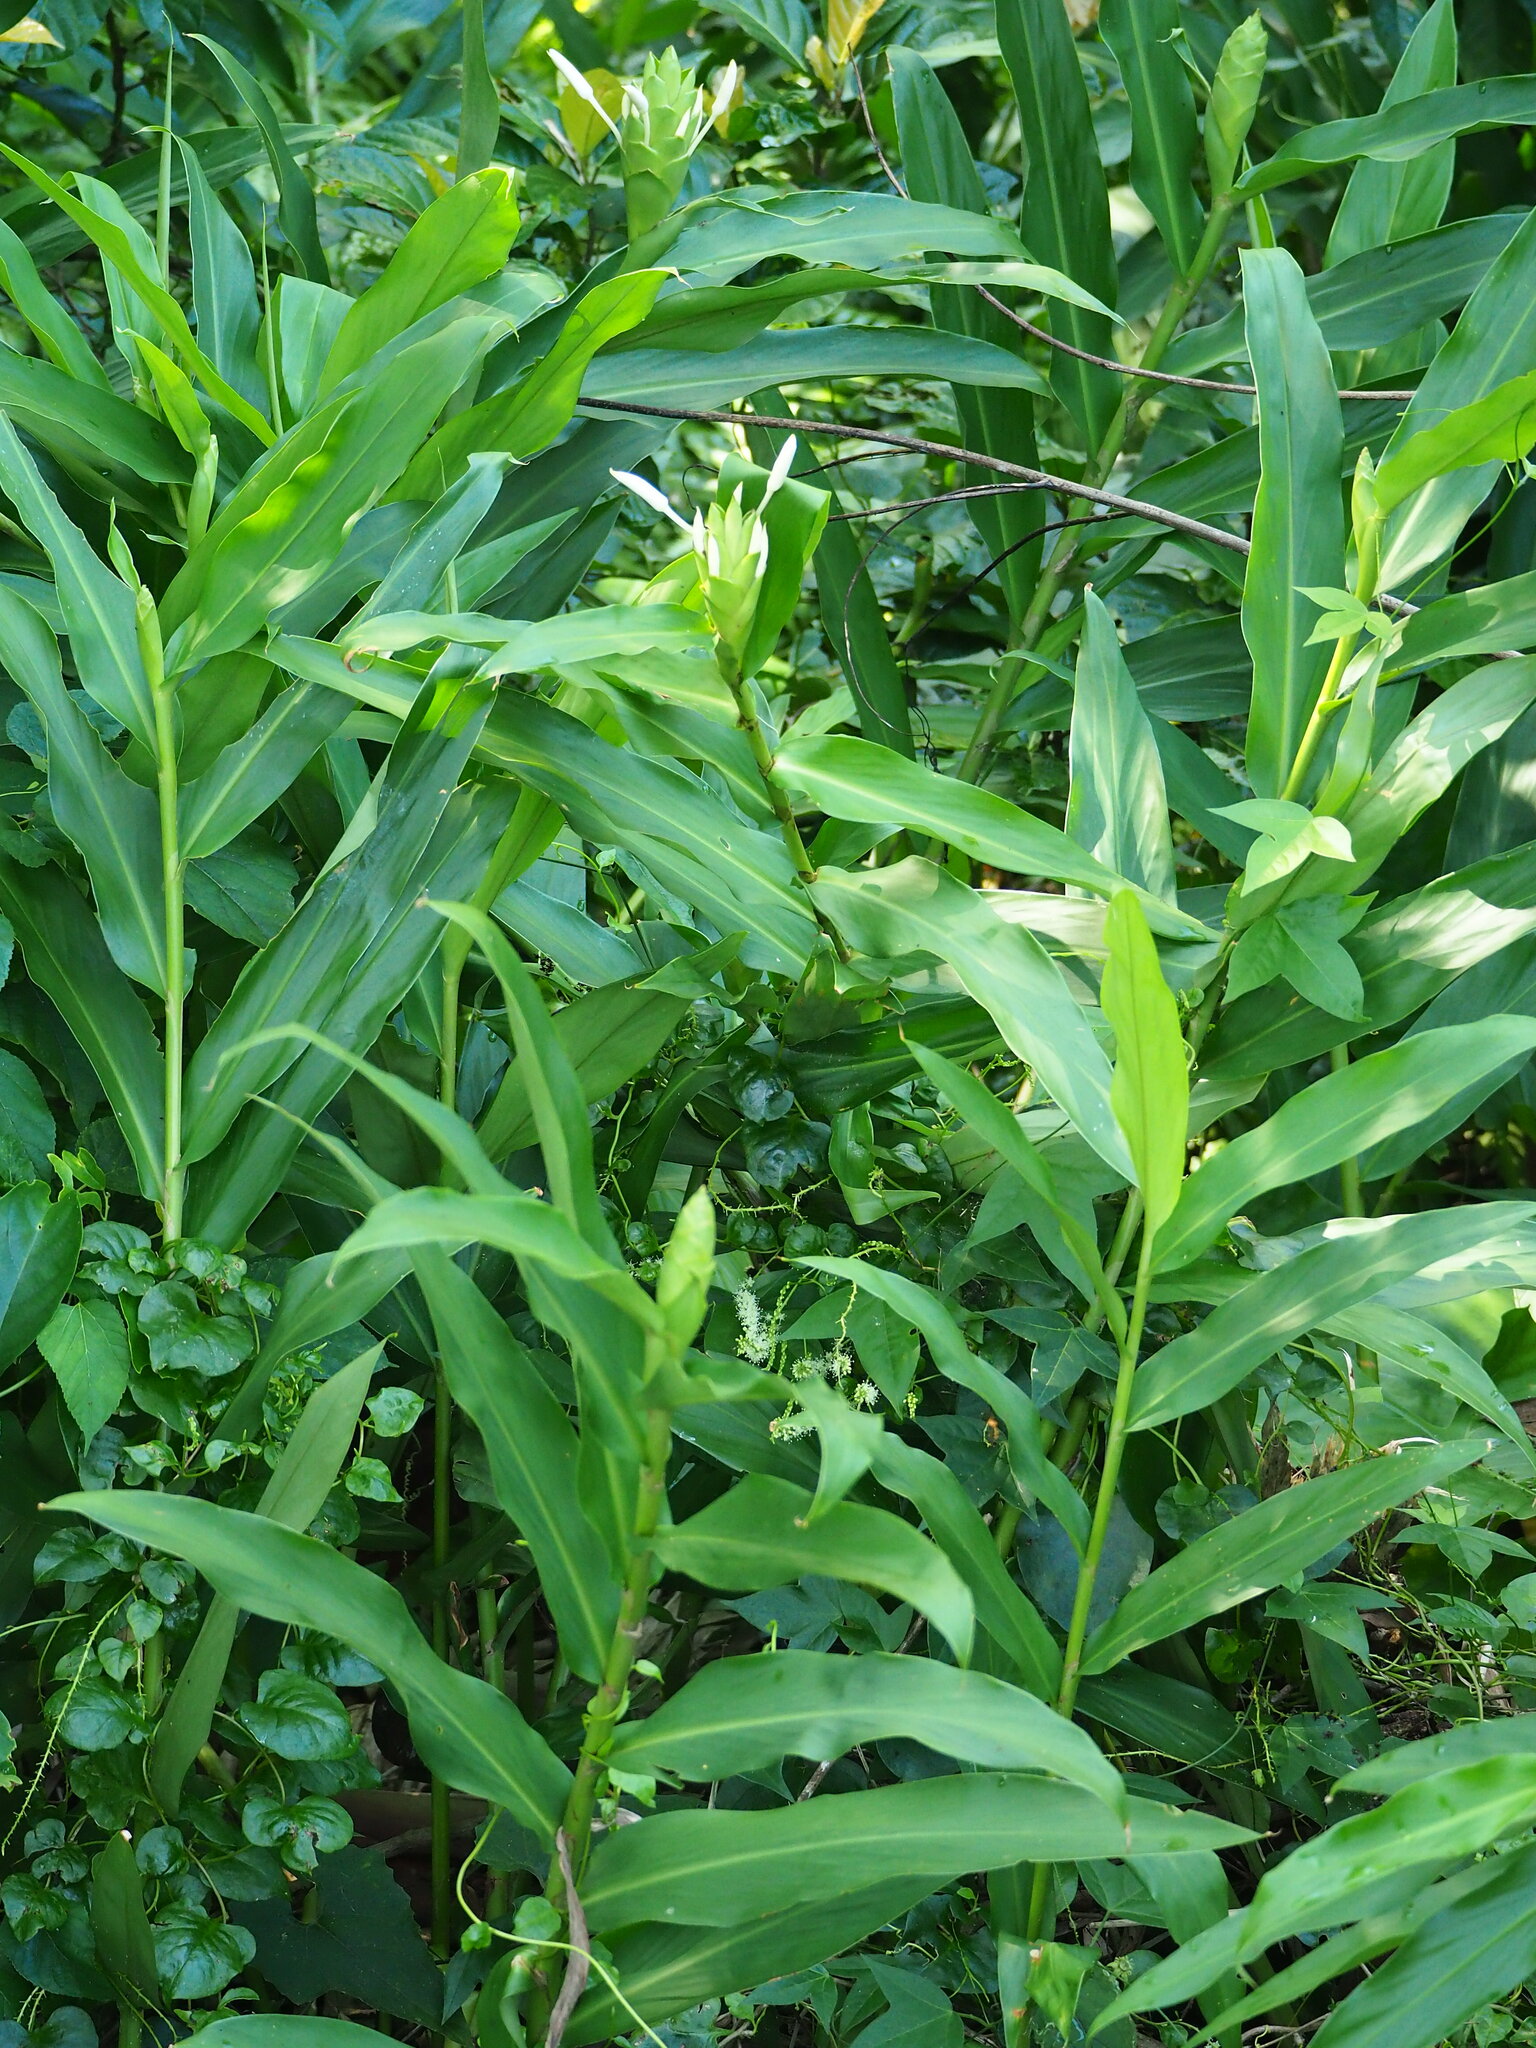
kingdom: Plantae
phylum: Tracheophyta
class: Liliopsida
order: Zingiberales
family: Zingiberaceae
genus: Hedychium
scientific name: Hedychium coronarium
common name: White garland-lily
